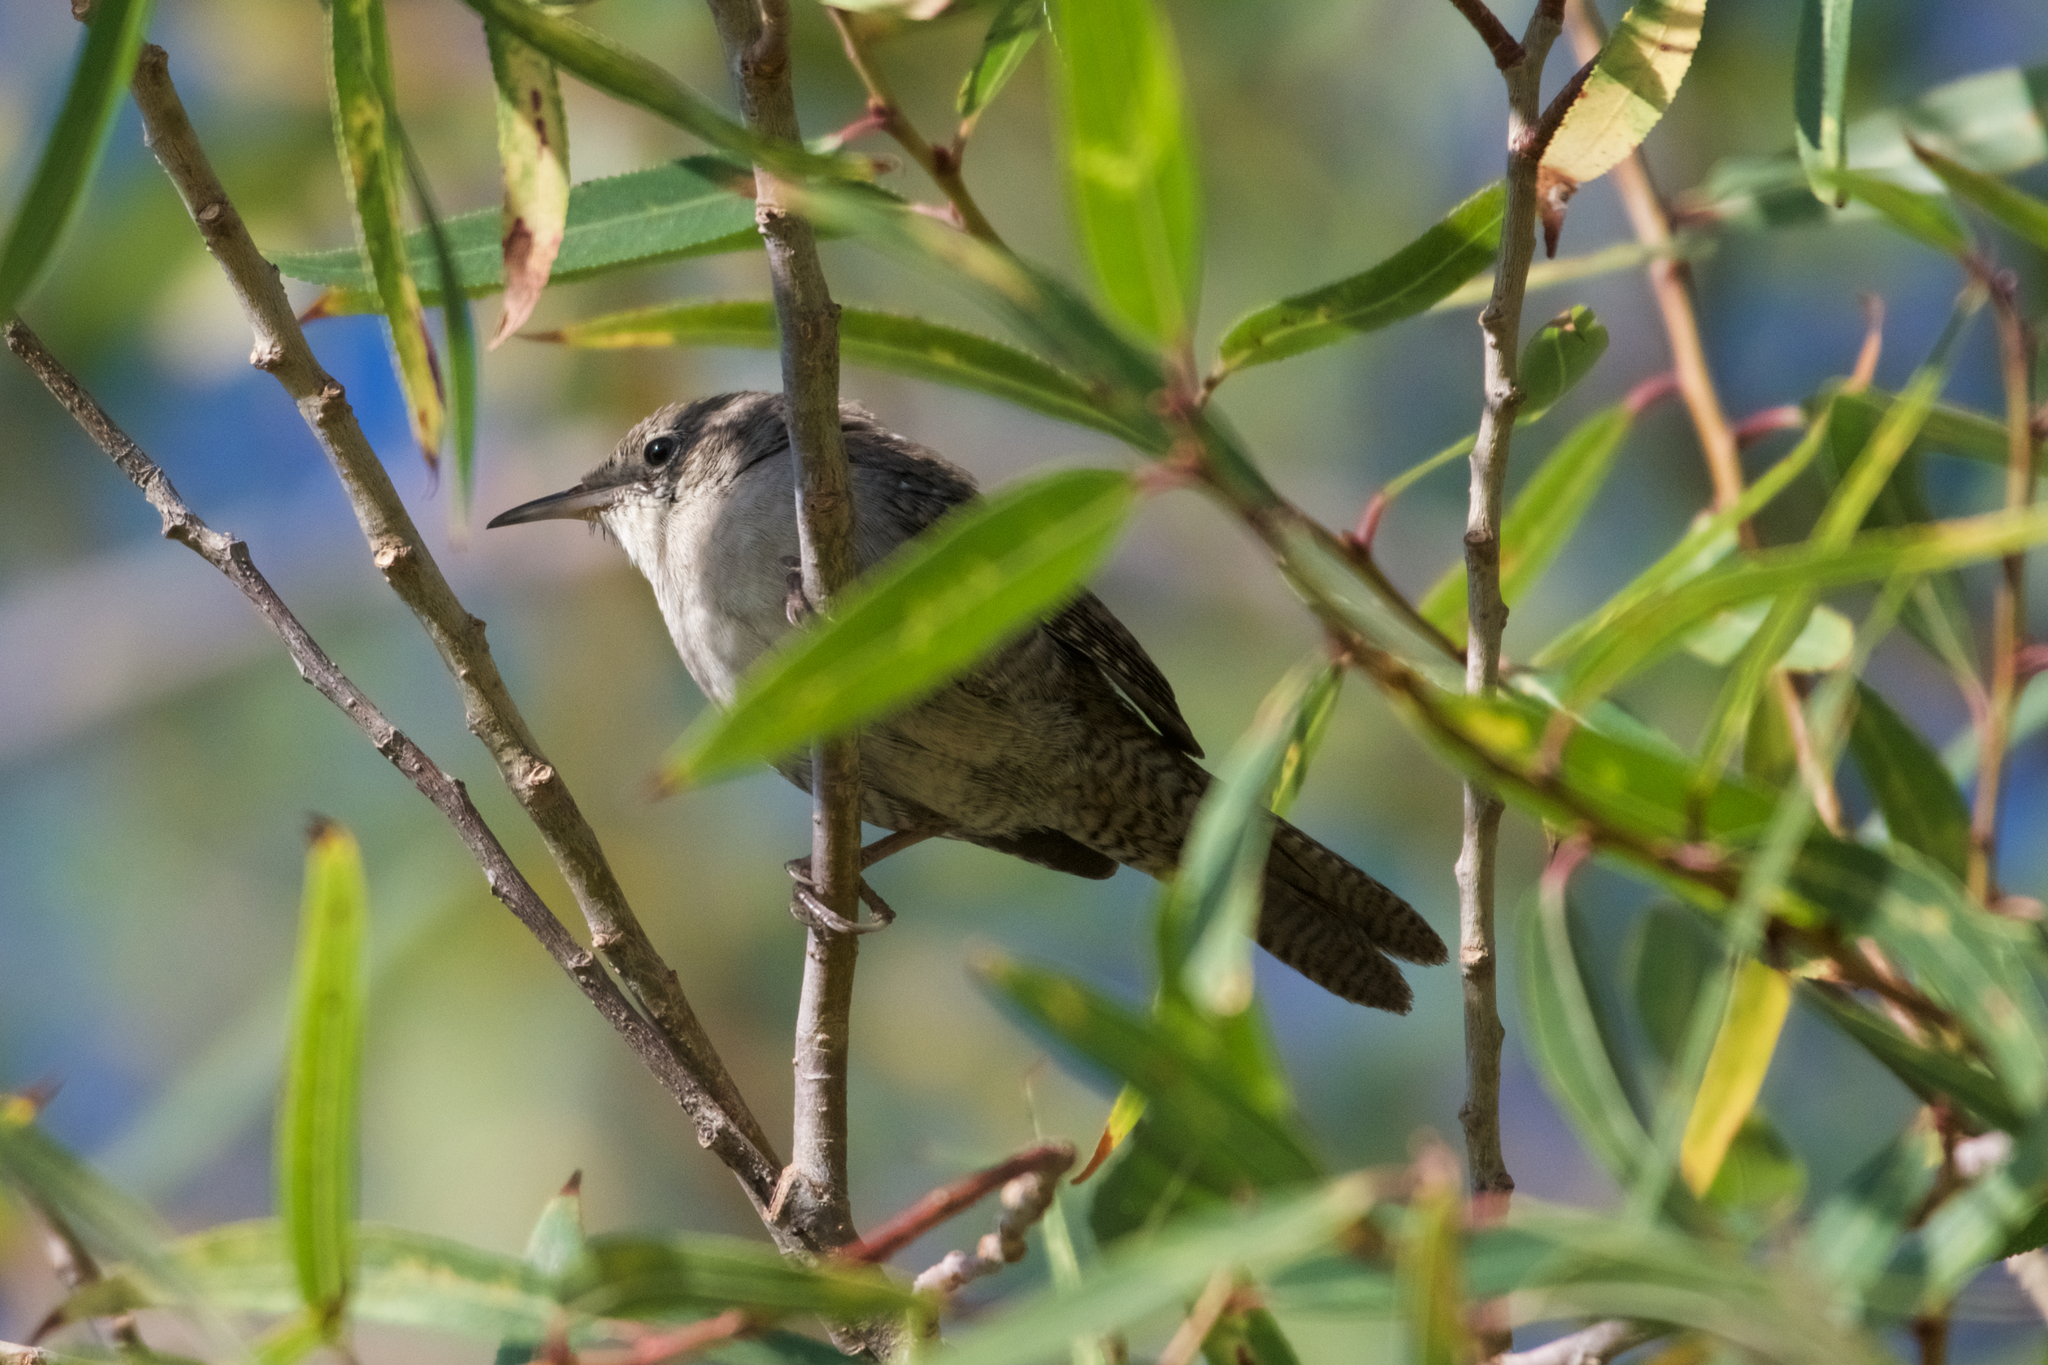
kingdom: Animalia
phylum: Chordata
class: Aves
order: Passeriformes
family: Troglodytidae
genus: Troglodytes
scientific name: Troglodytes aedon
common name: House wren
